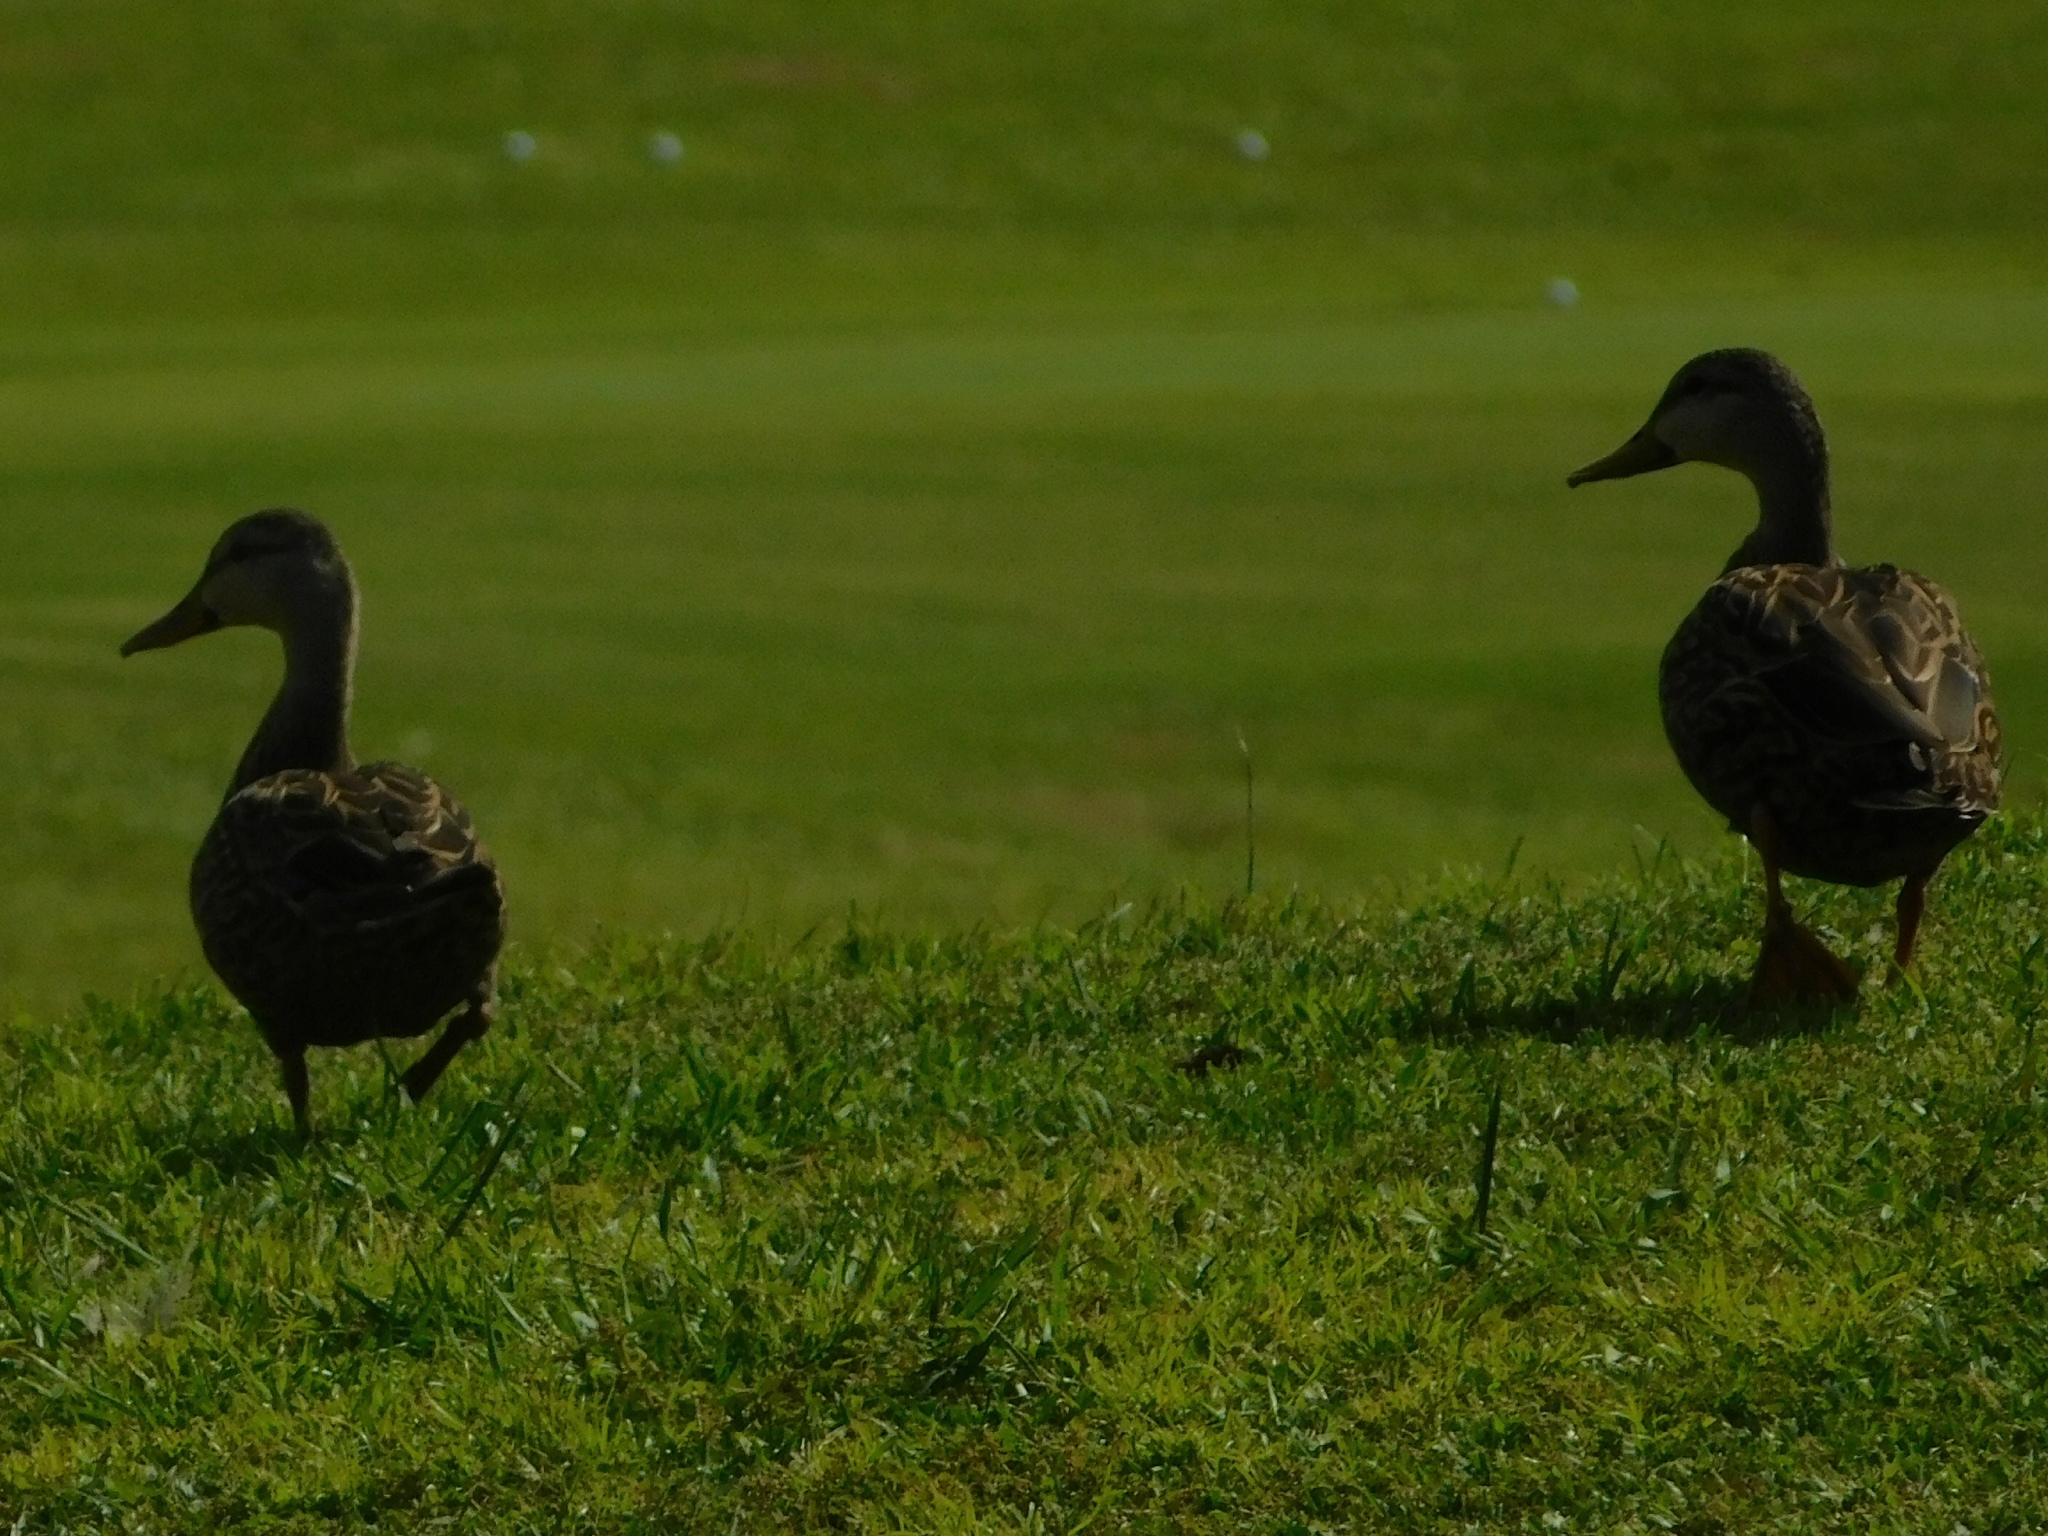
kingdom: Animalia
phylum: Chordata
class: Aves
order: Anseriformes
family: Anatidae
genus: Anas
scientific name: Anas fulvigula
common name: Mottled duck
